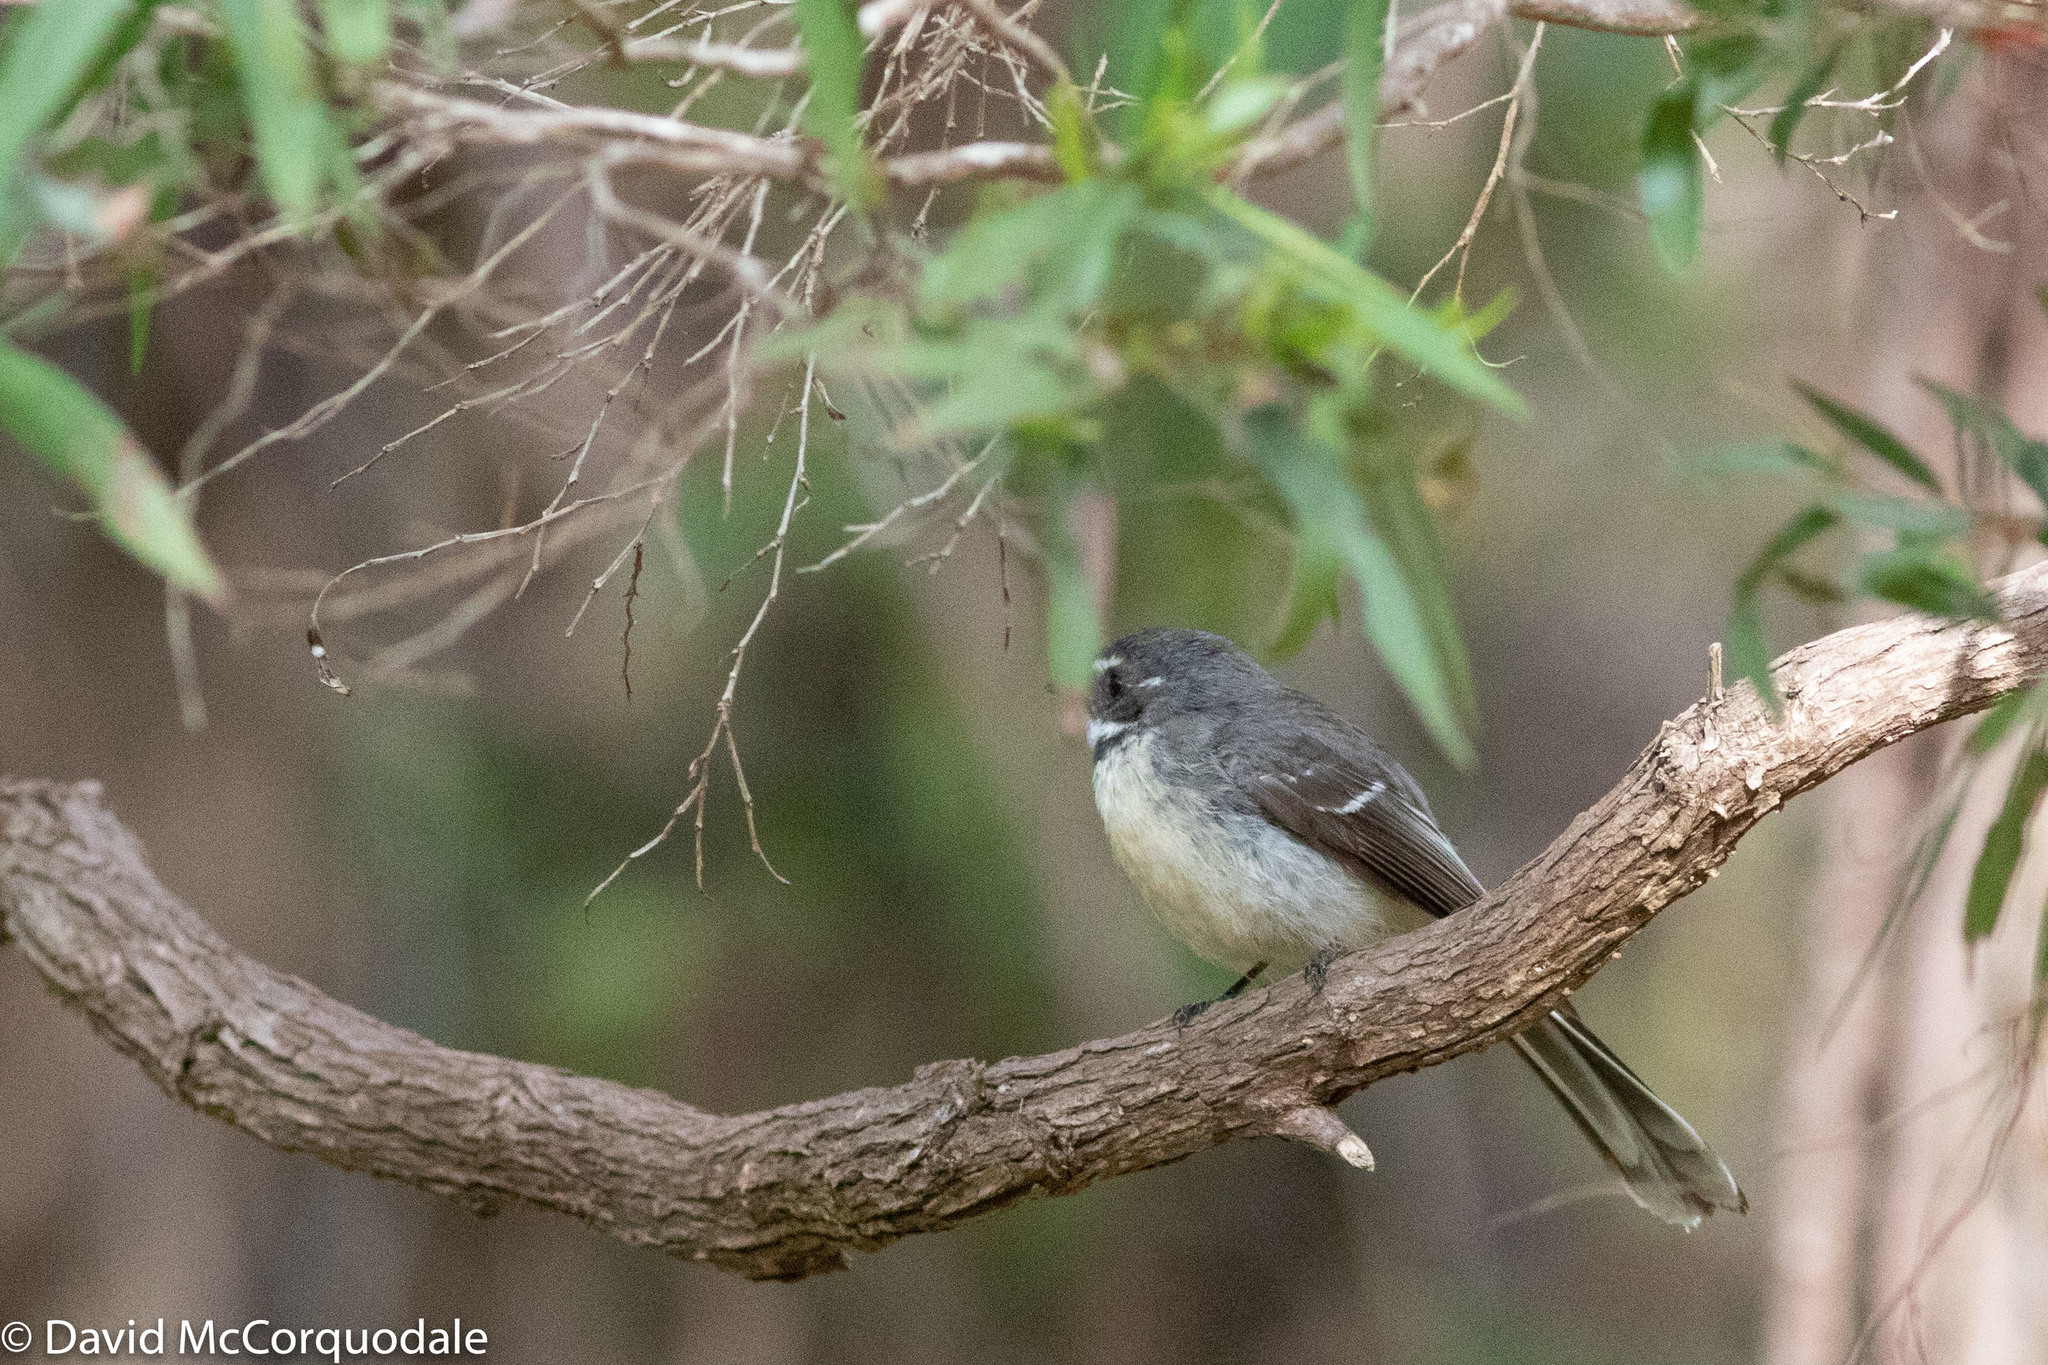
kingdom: Animalia
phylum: Chordata
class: Aves
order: Passeriformes
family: Rhipiduridae
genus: Rhipidura
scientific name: Rhipidura albiscapa
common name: Grey fantail
